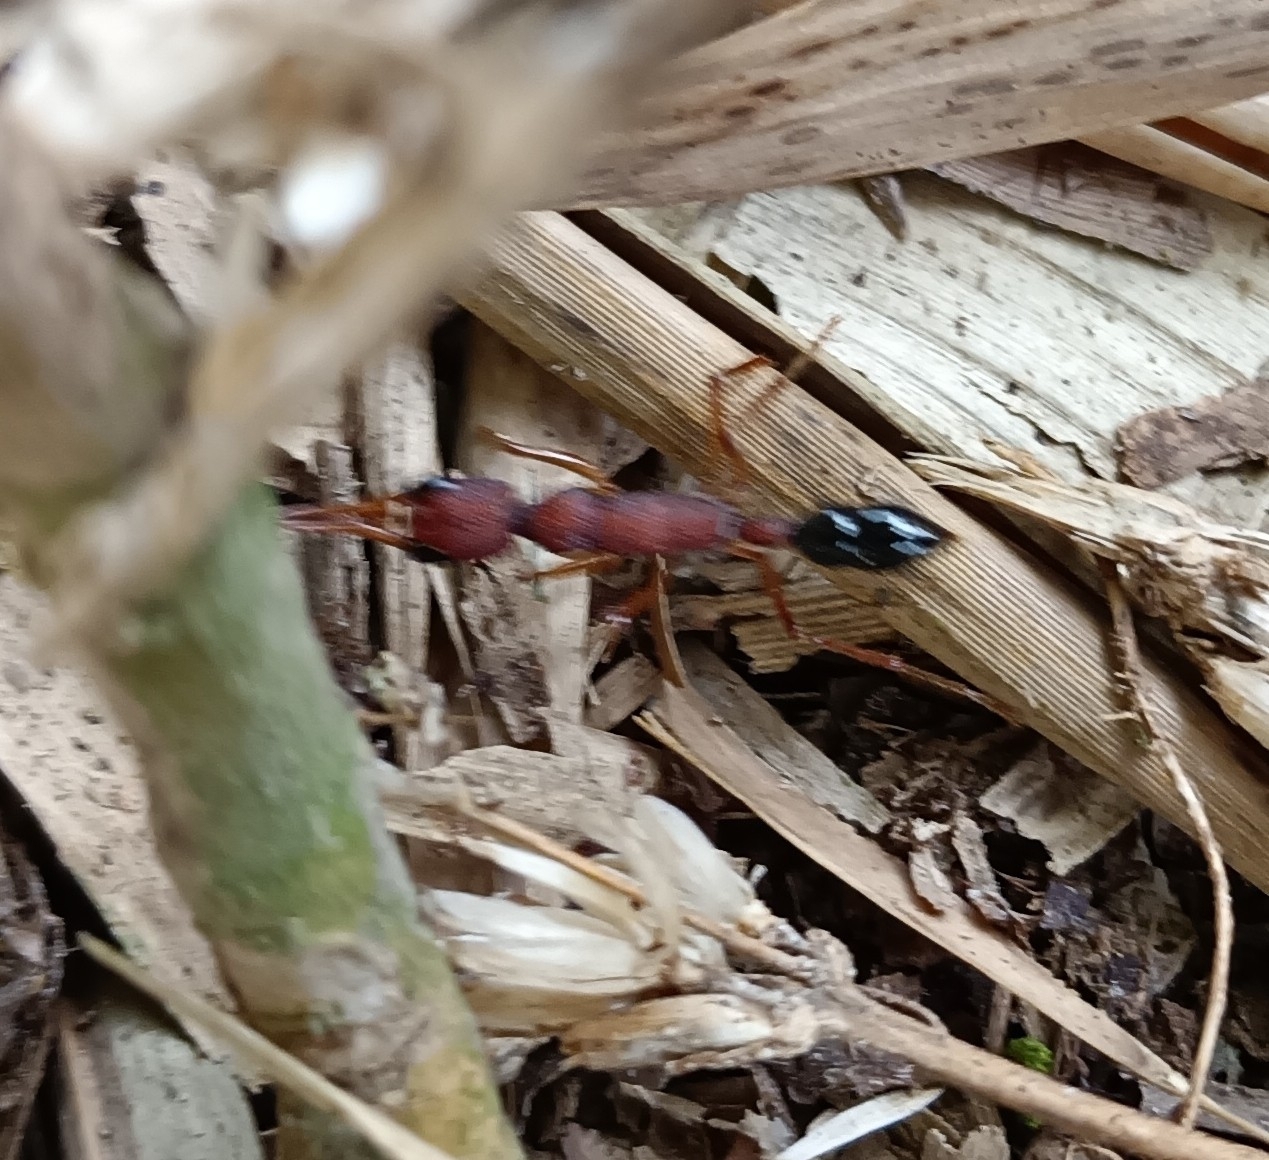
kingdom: Animalia
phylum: Arthropoda
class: Insecta
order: Hymenoptera
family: Formicidae
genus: Harpegnathos
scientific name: Harpegnathos saltator
